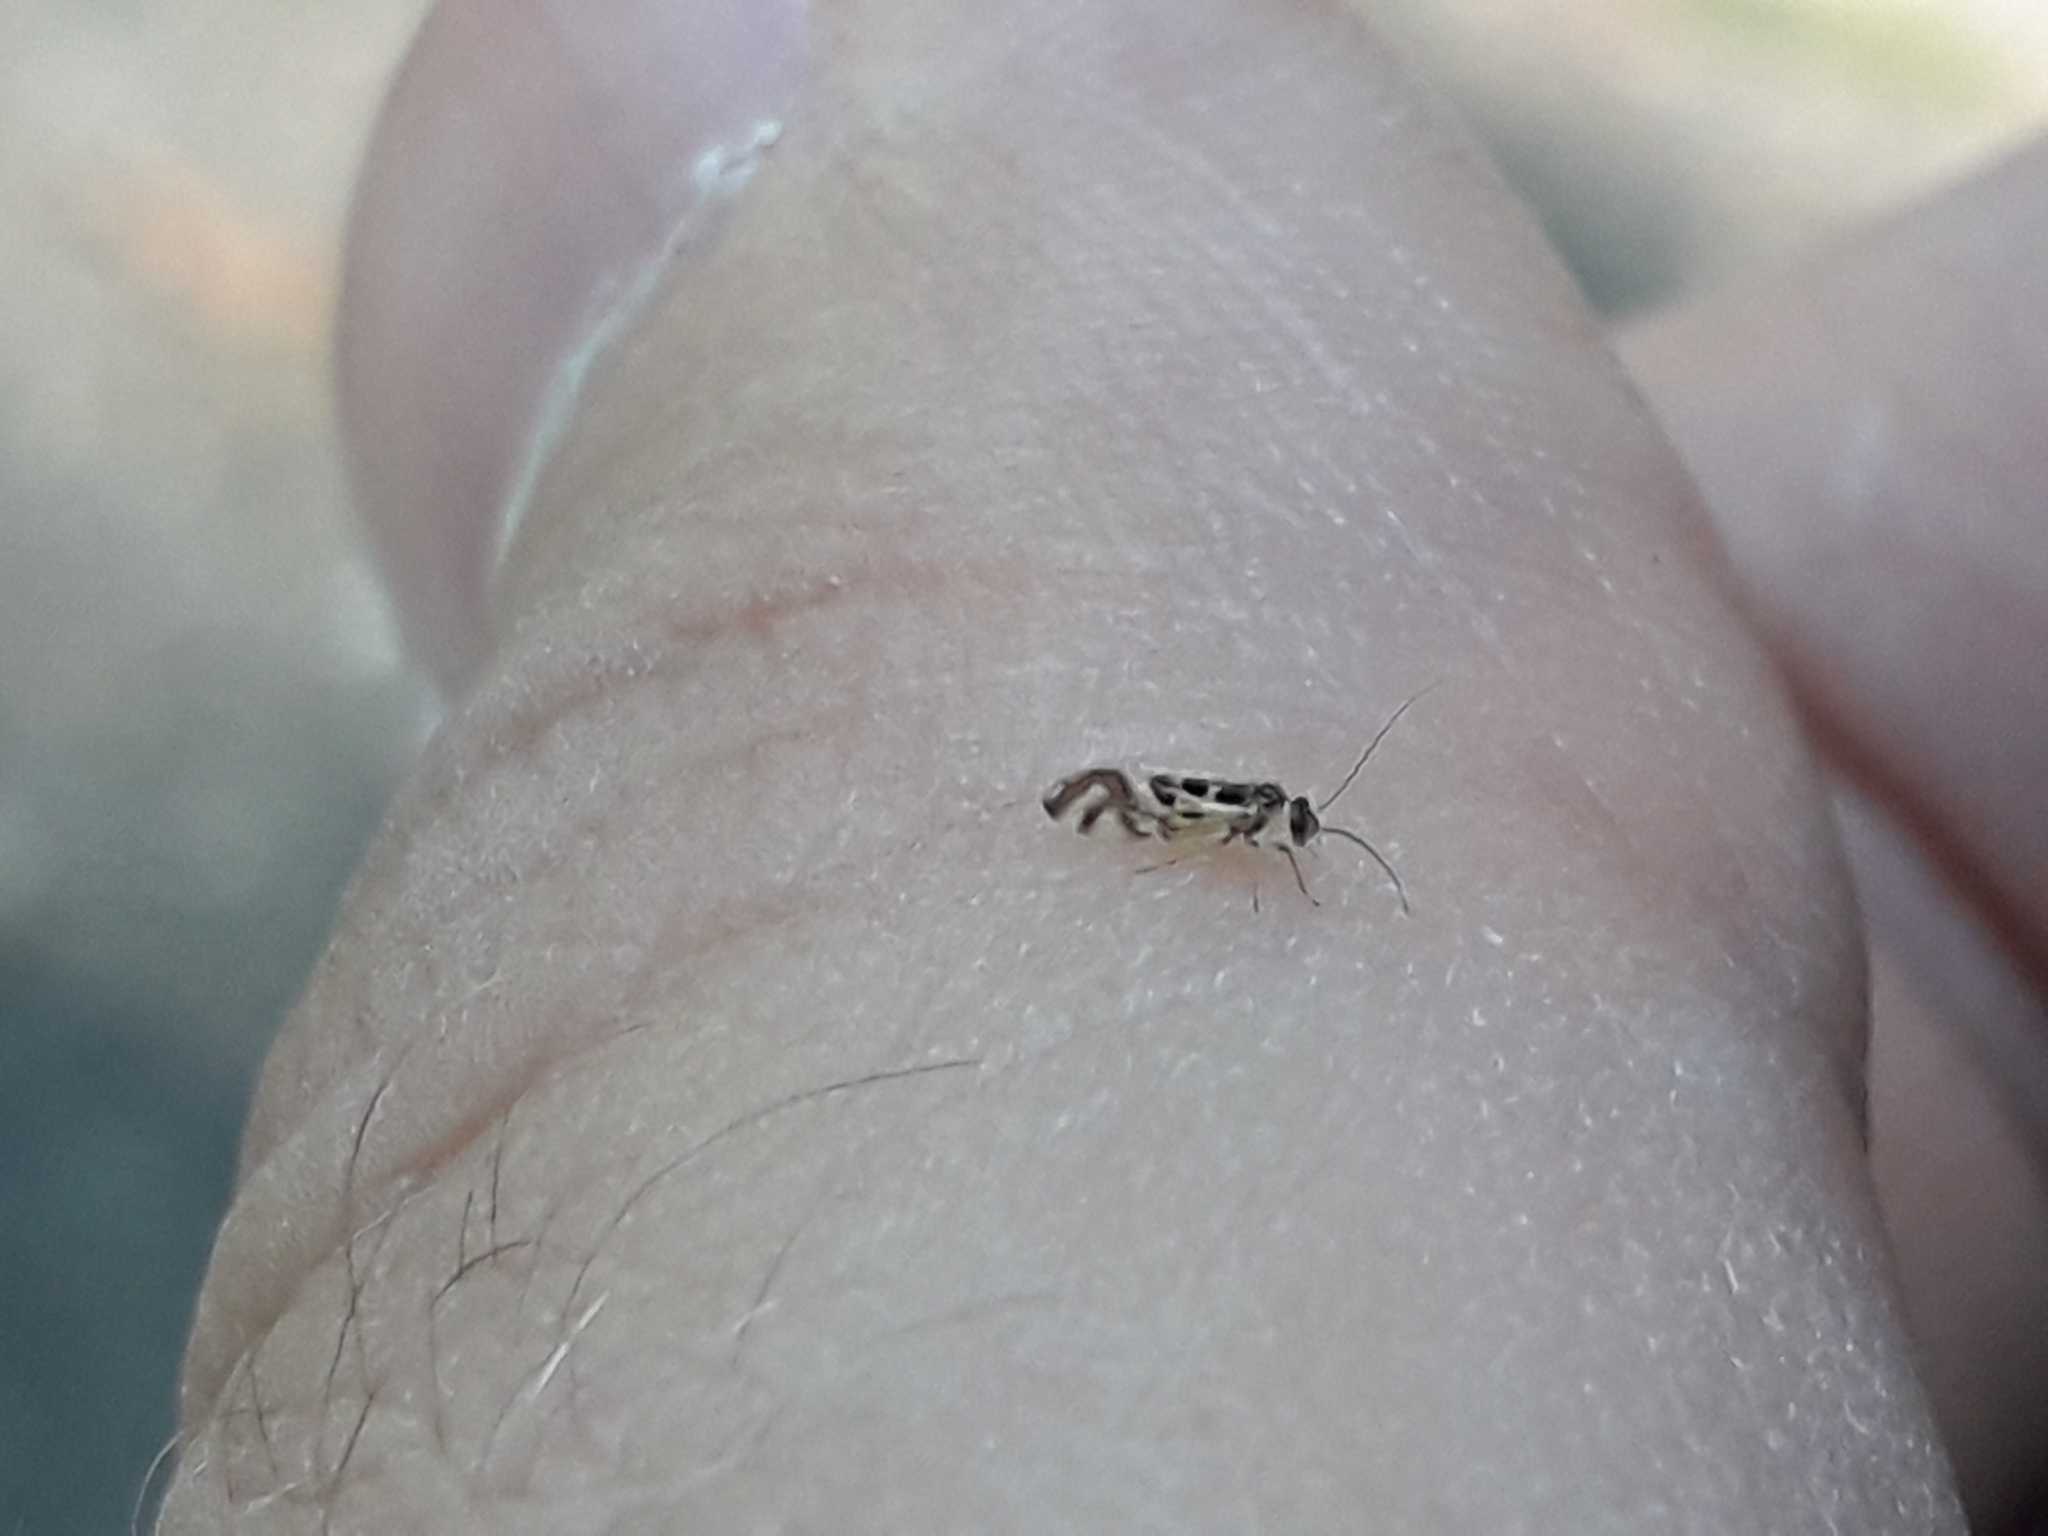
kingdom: Animalia
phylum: Arthropoda
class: Insecta
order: Psocodea
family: Stenopsocidae
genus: Graphopsocus
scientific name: Graphopsocus cruciatus
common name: Lizard bark louse
